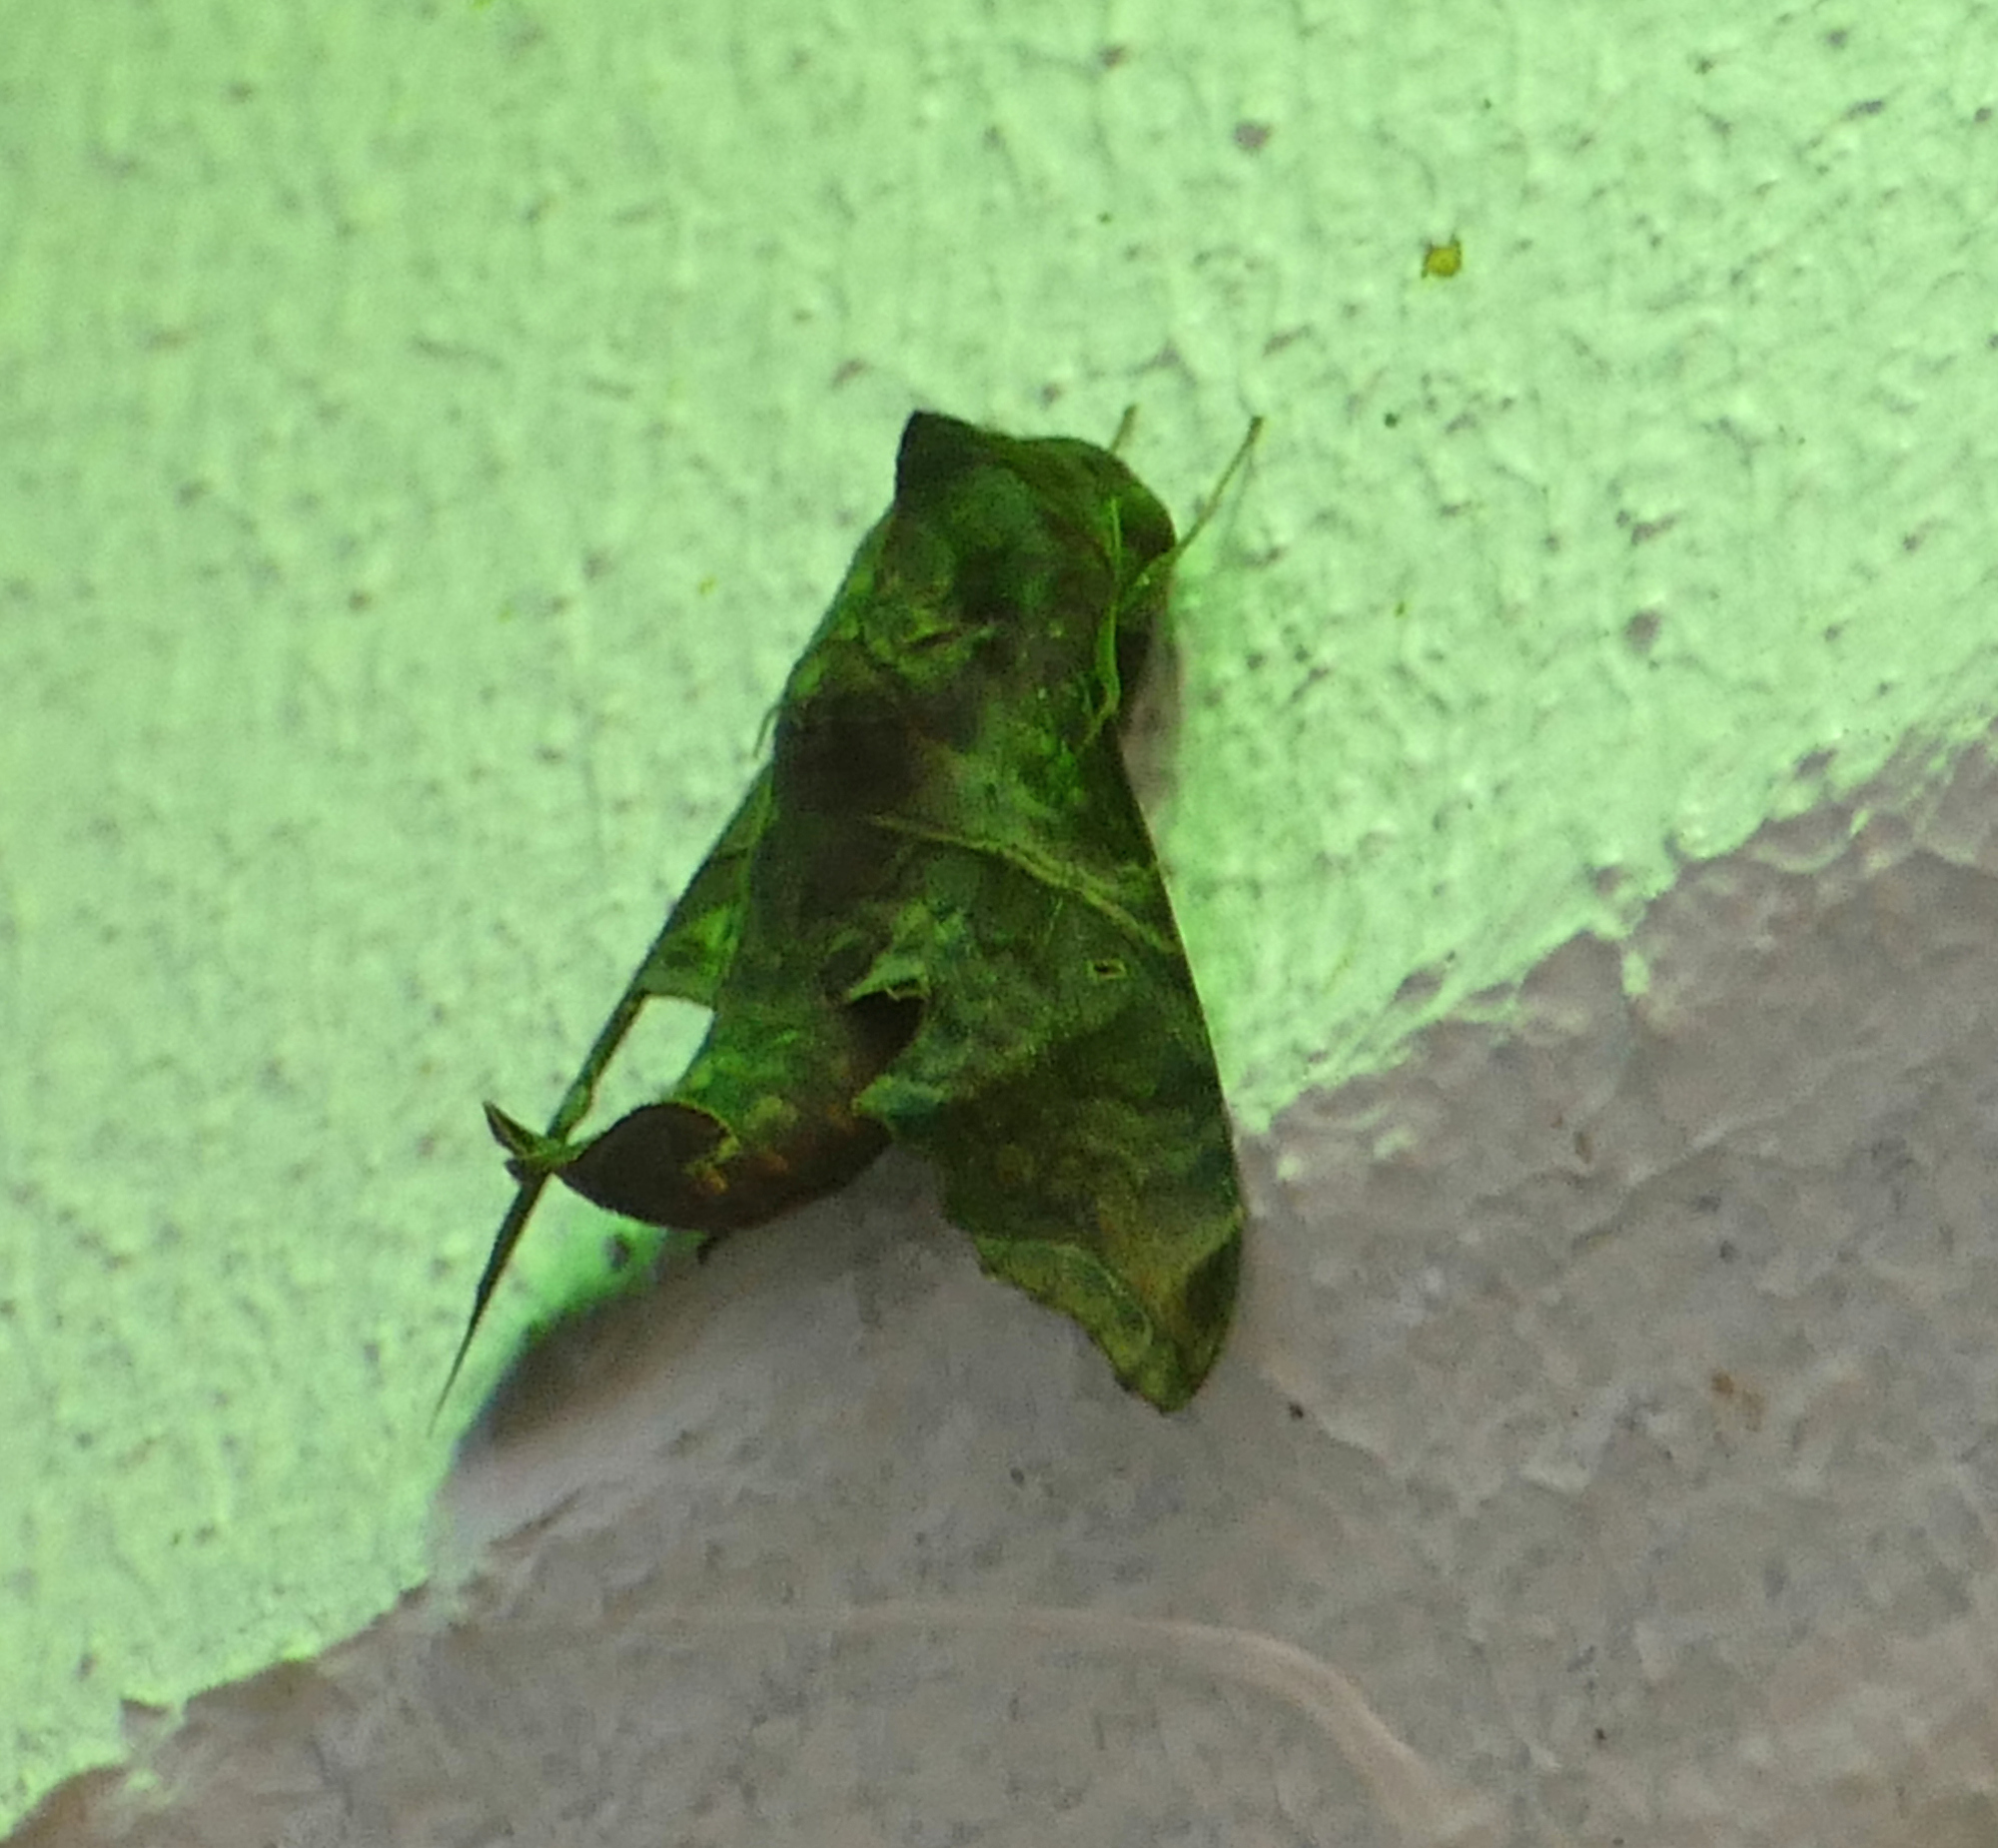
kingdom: Animalia
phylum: Arthropoda
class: Insecta
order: Lepidoptera
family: Sphingidae
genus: Enyo
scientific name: Enyo lugubris
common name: Mournful sphinx
